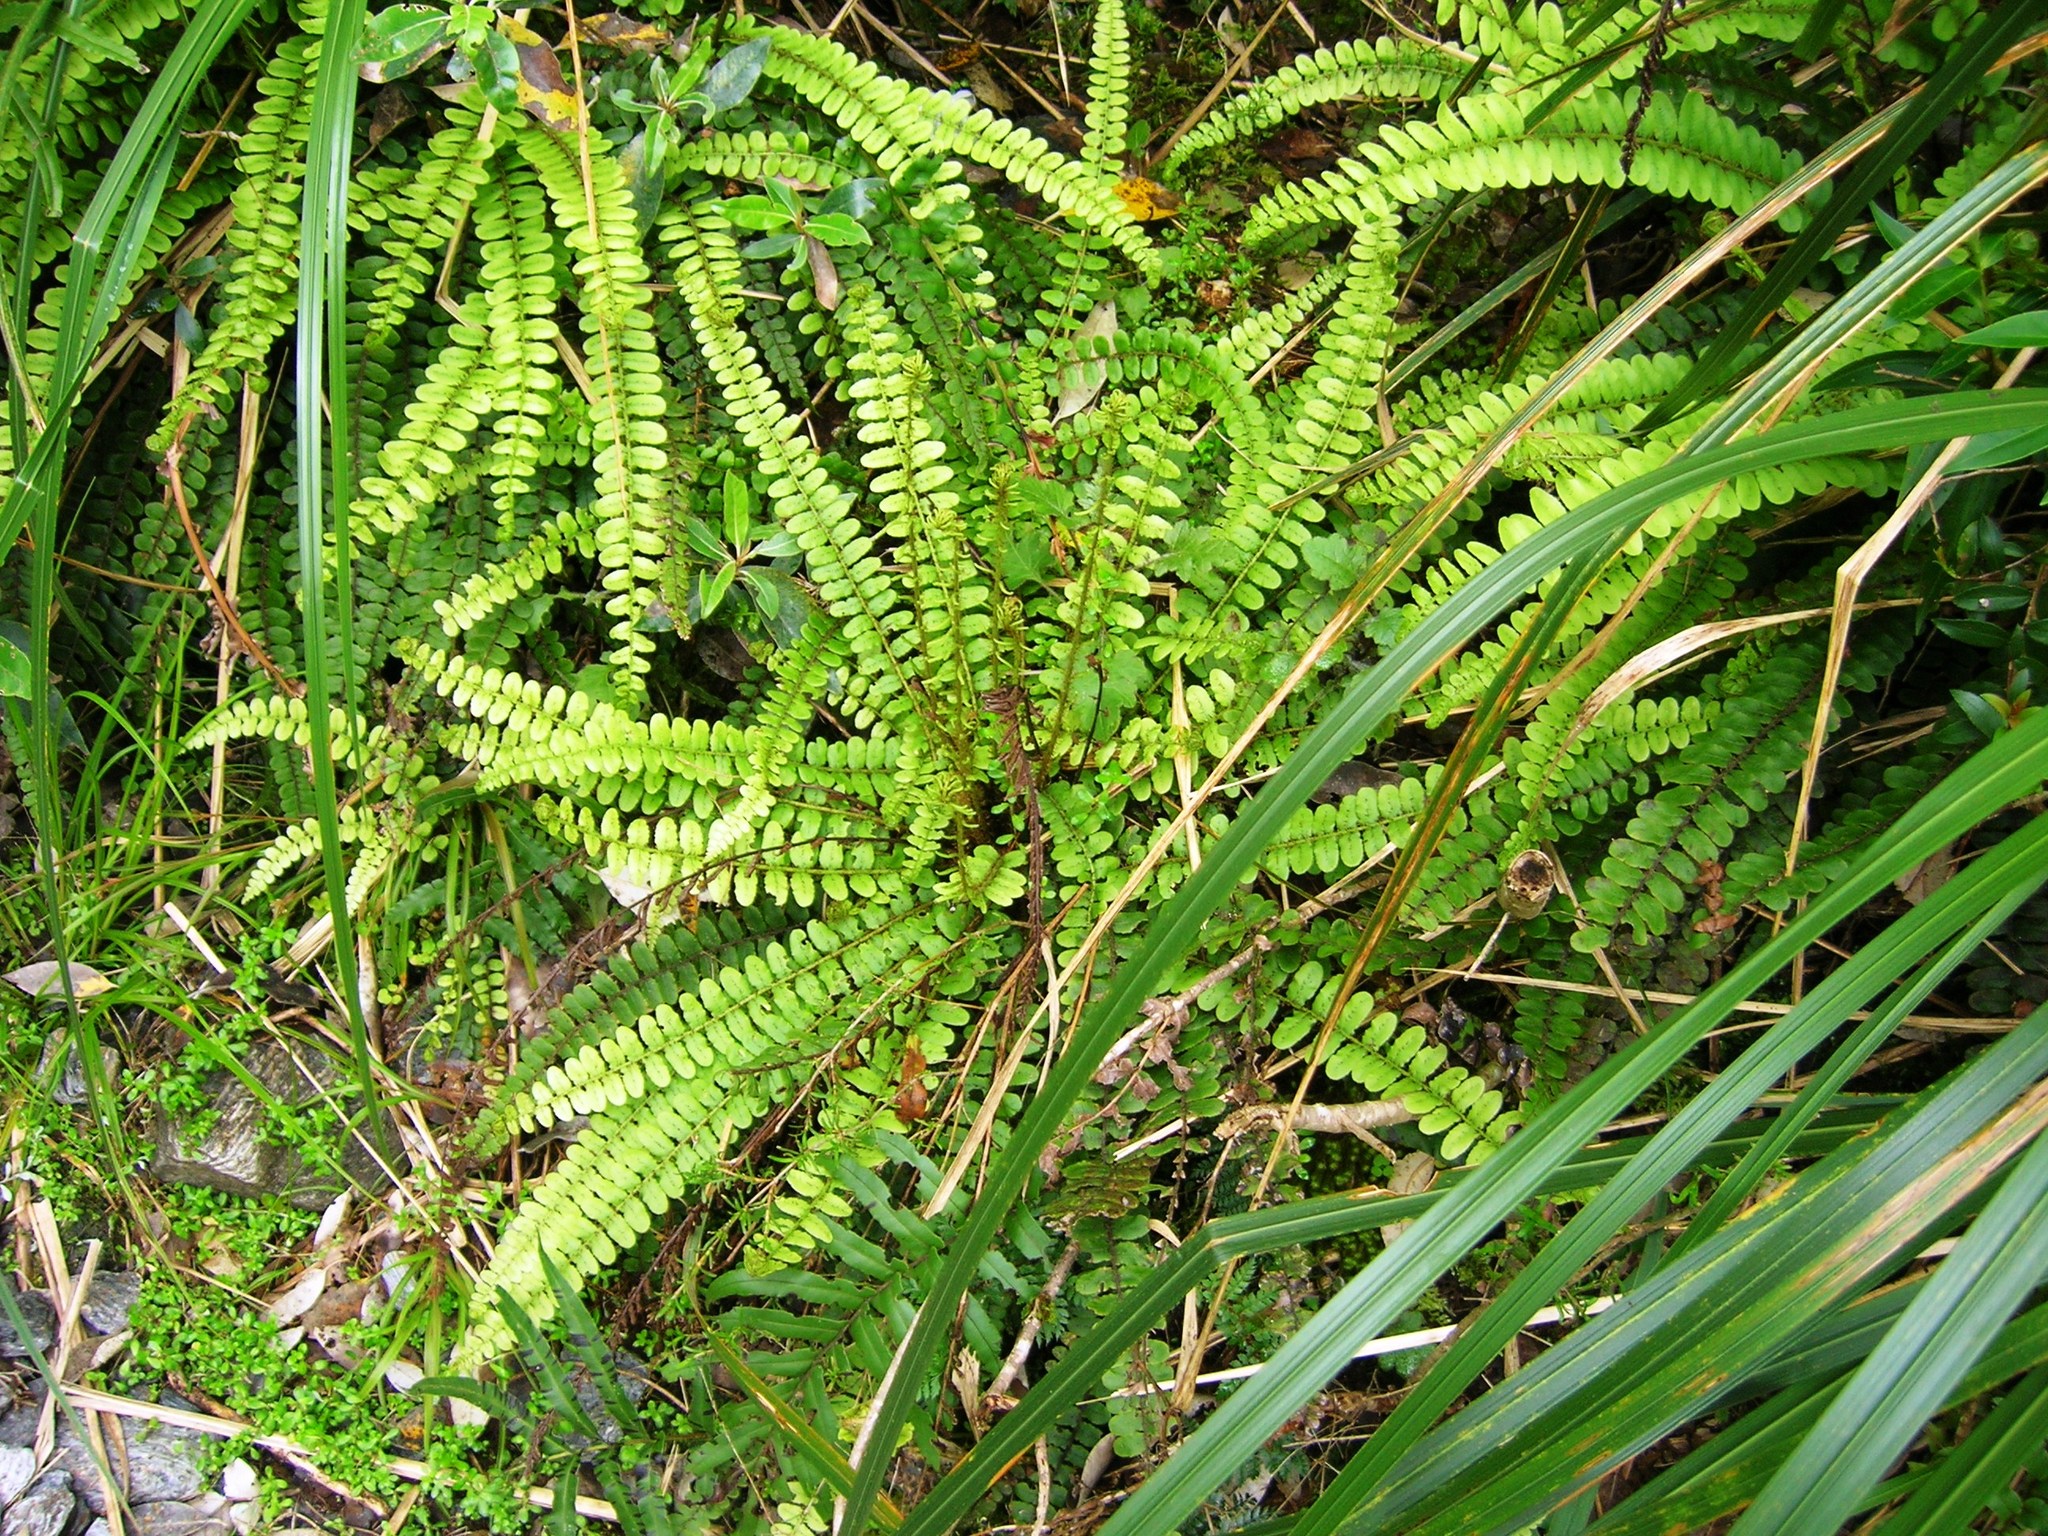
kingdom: Plantae
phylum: Tracheophyta
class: Polypodiopsida
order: Polypodiales
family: Blechnaceae
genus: Cranfillia
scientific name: Cranfillia fluviatilis
